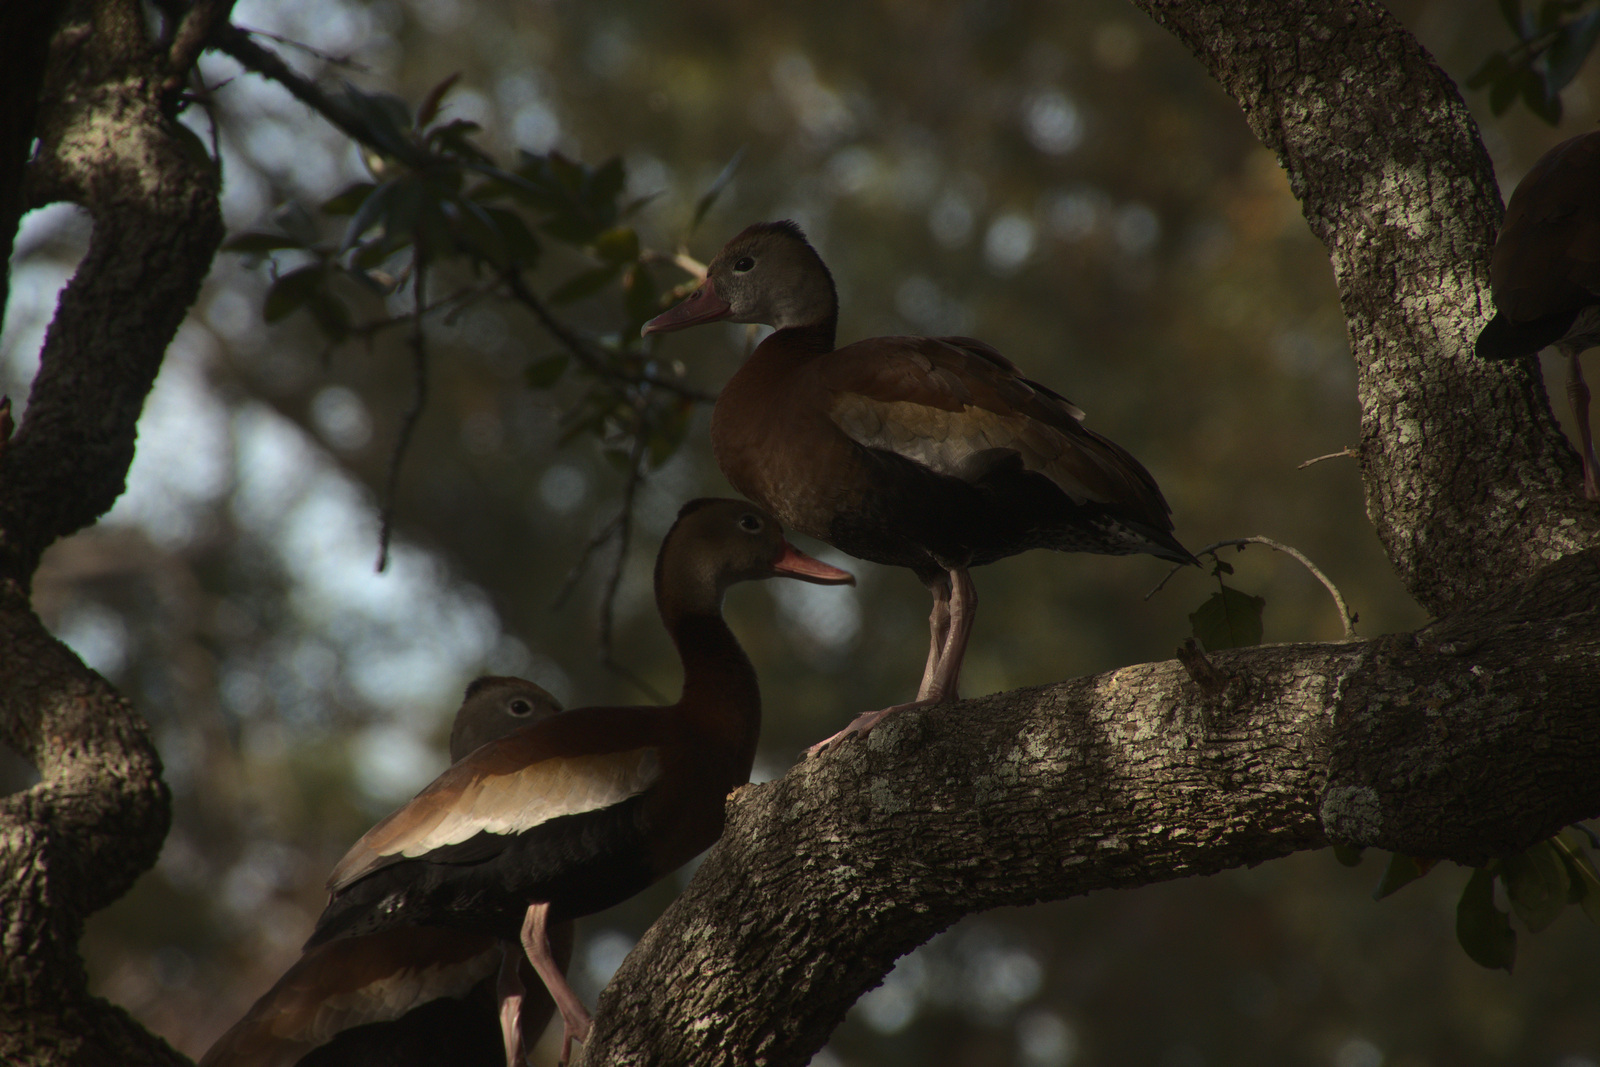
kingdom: Animalia
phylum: Chordata
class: Aves
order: Anseriformes
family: Anatidae
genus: Dendrocygna
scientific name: Dendrocygna autumnalis
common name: Black-bellied whistling duck
